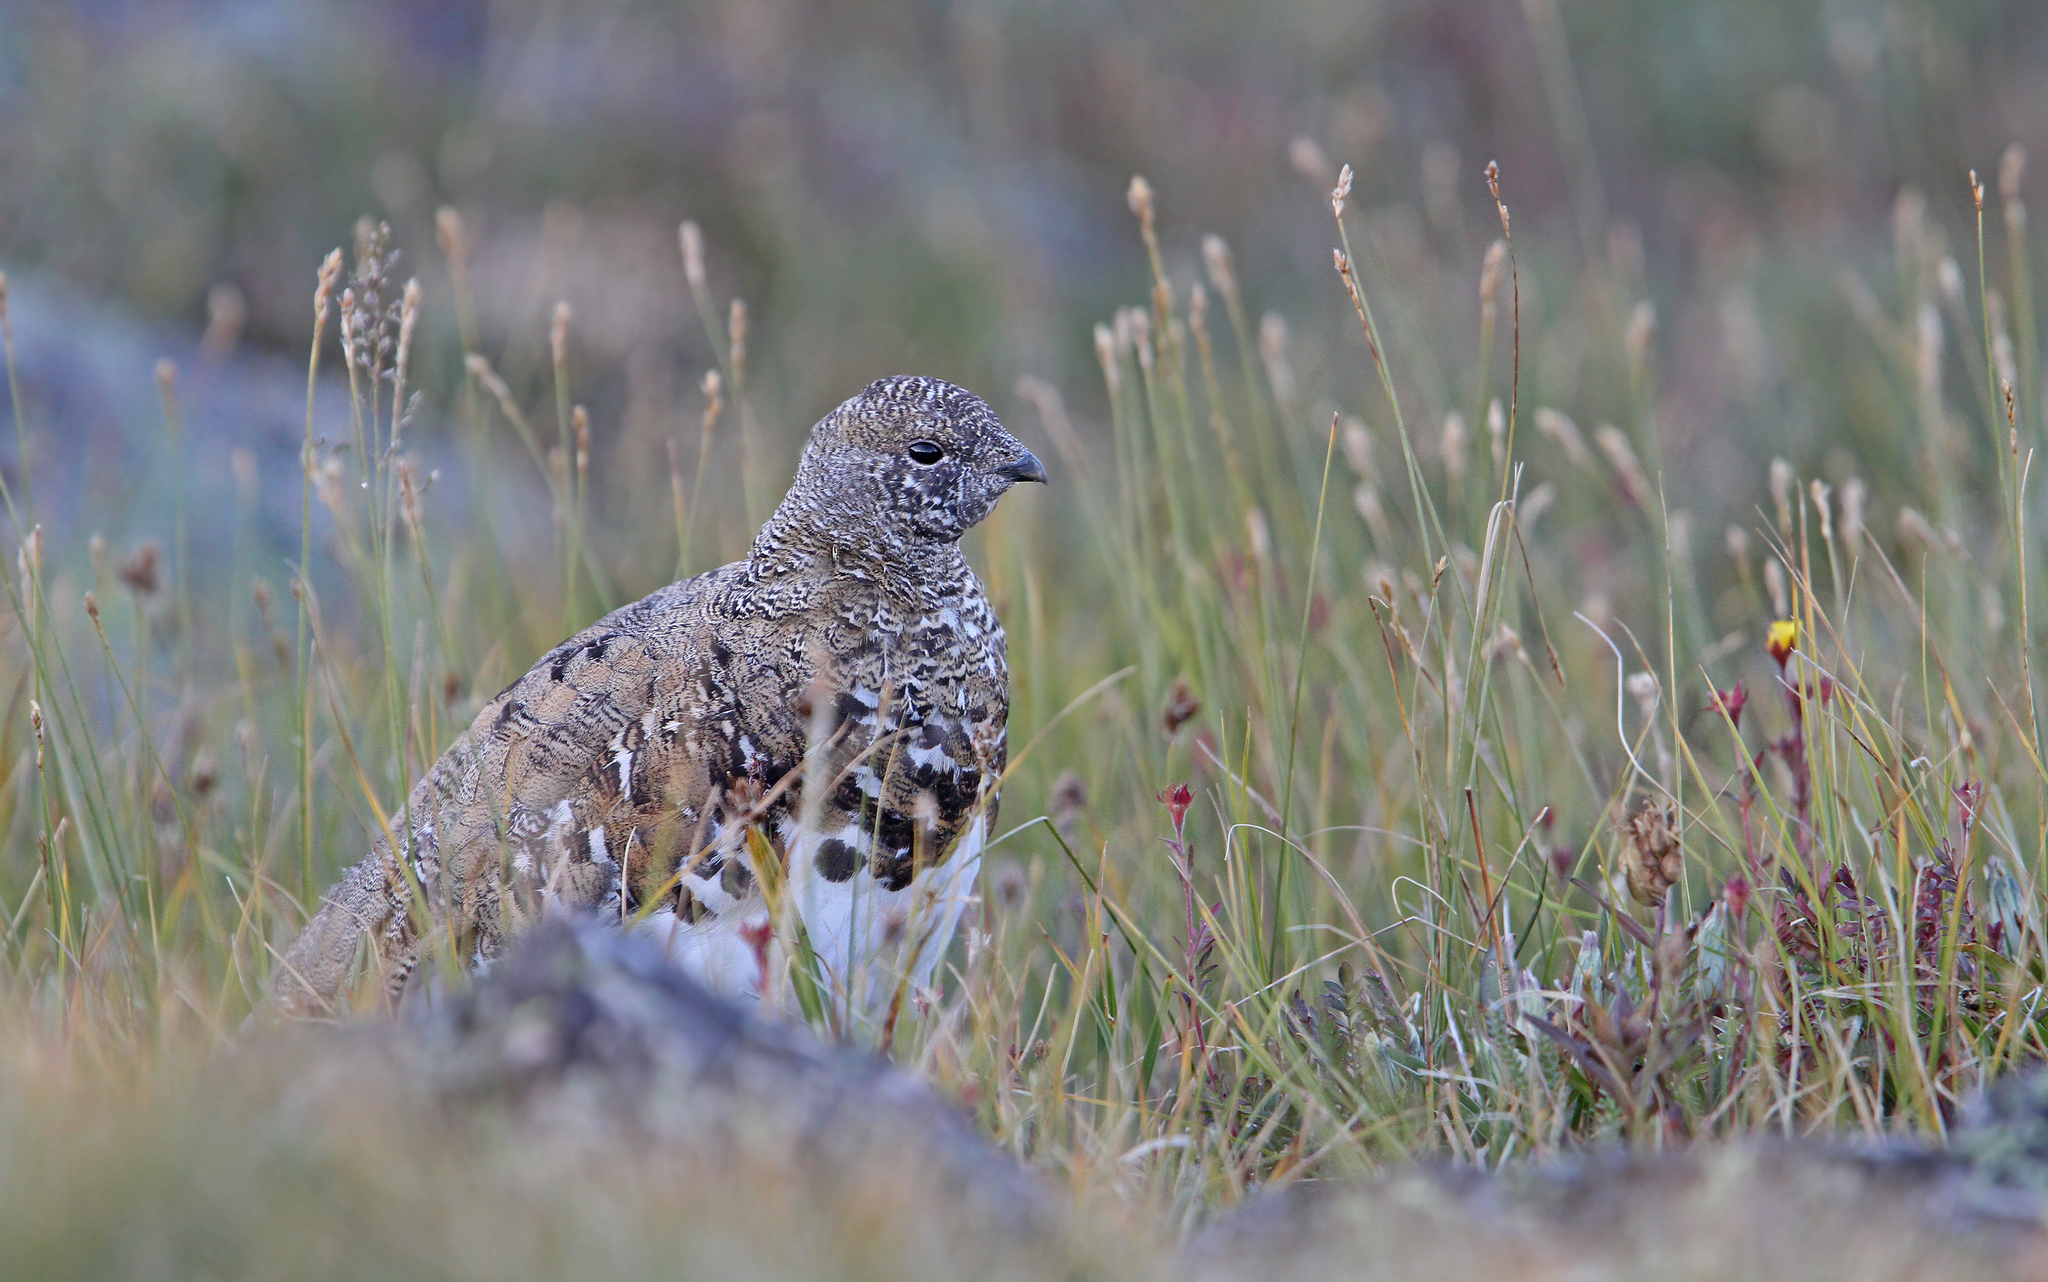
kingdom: Animalia
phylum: Chordata
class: Aves
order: Galliformes
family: Phasianidae
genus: Lagopus
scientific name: Lagopus leucura
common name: White-tailed ptarmigan
